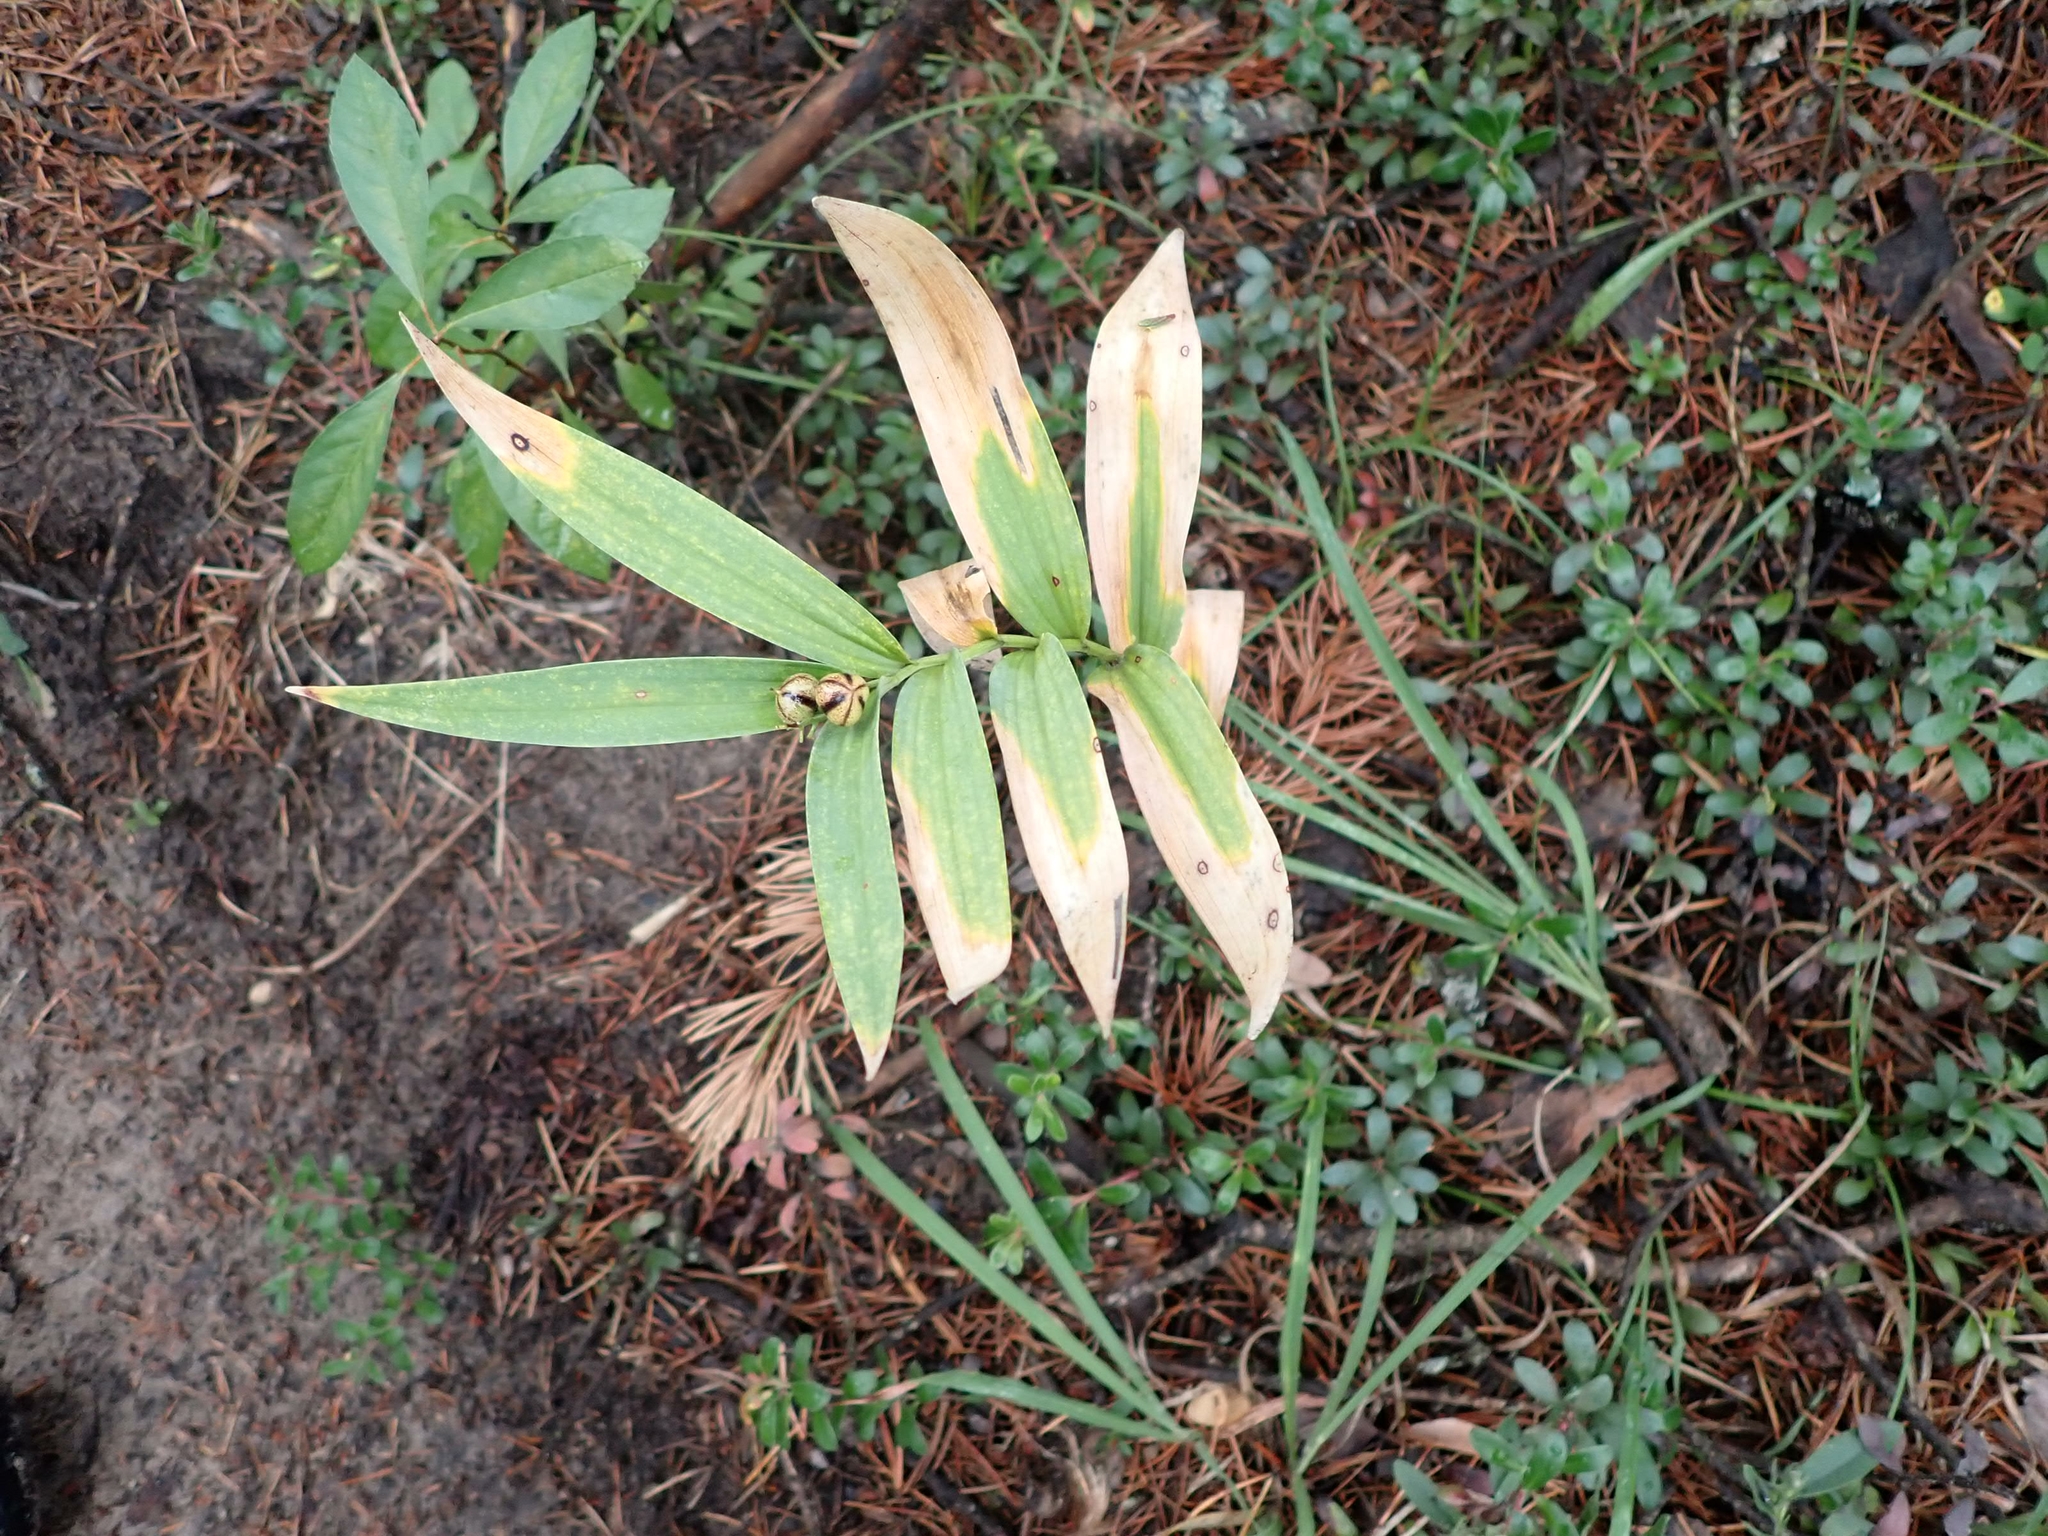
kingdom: Plantae
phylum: Tracheophyta
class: Liliopsida
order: Asparagales
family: Asparagaceae
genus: Maianthemum
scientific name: Maianthemum stellatum
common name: Little false solomon's seal
